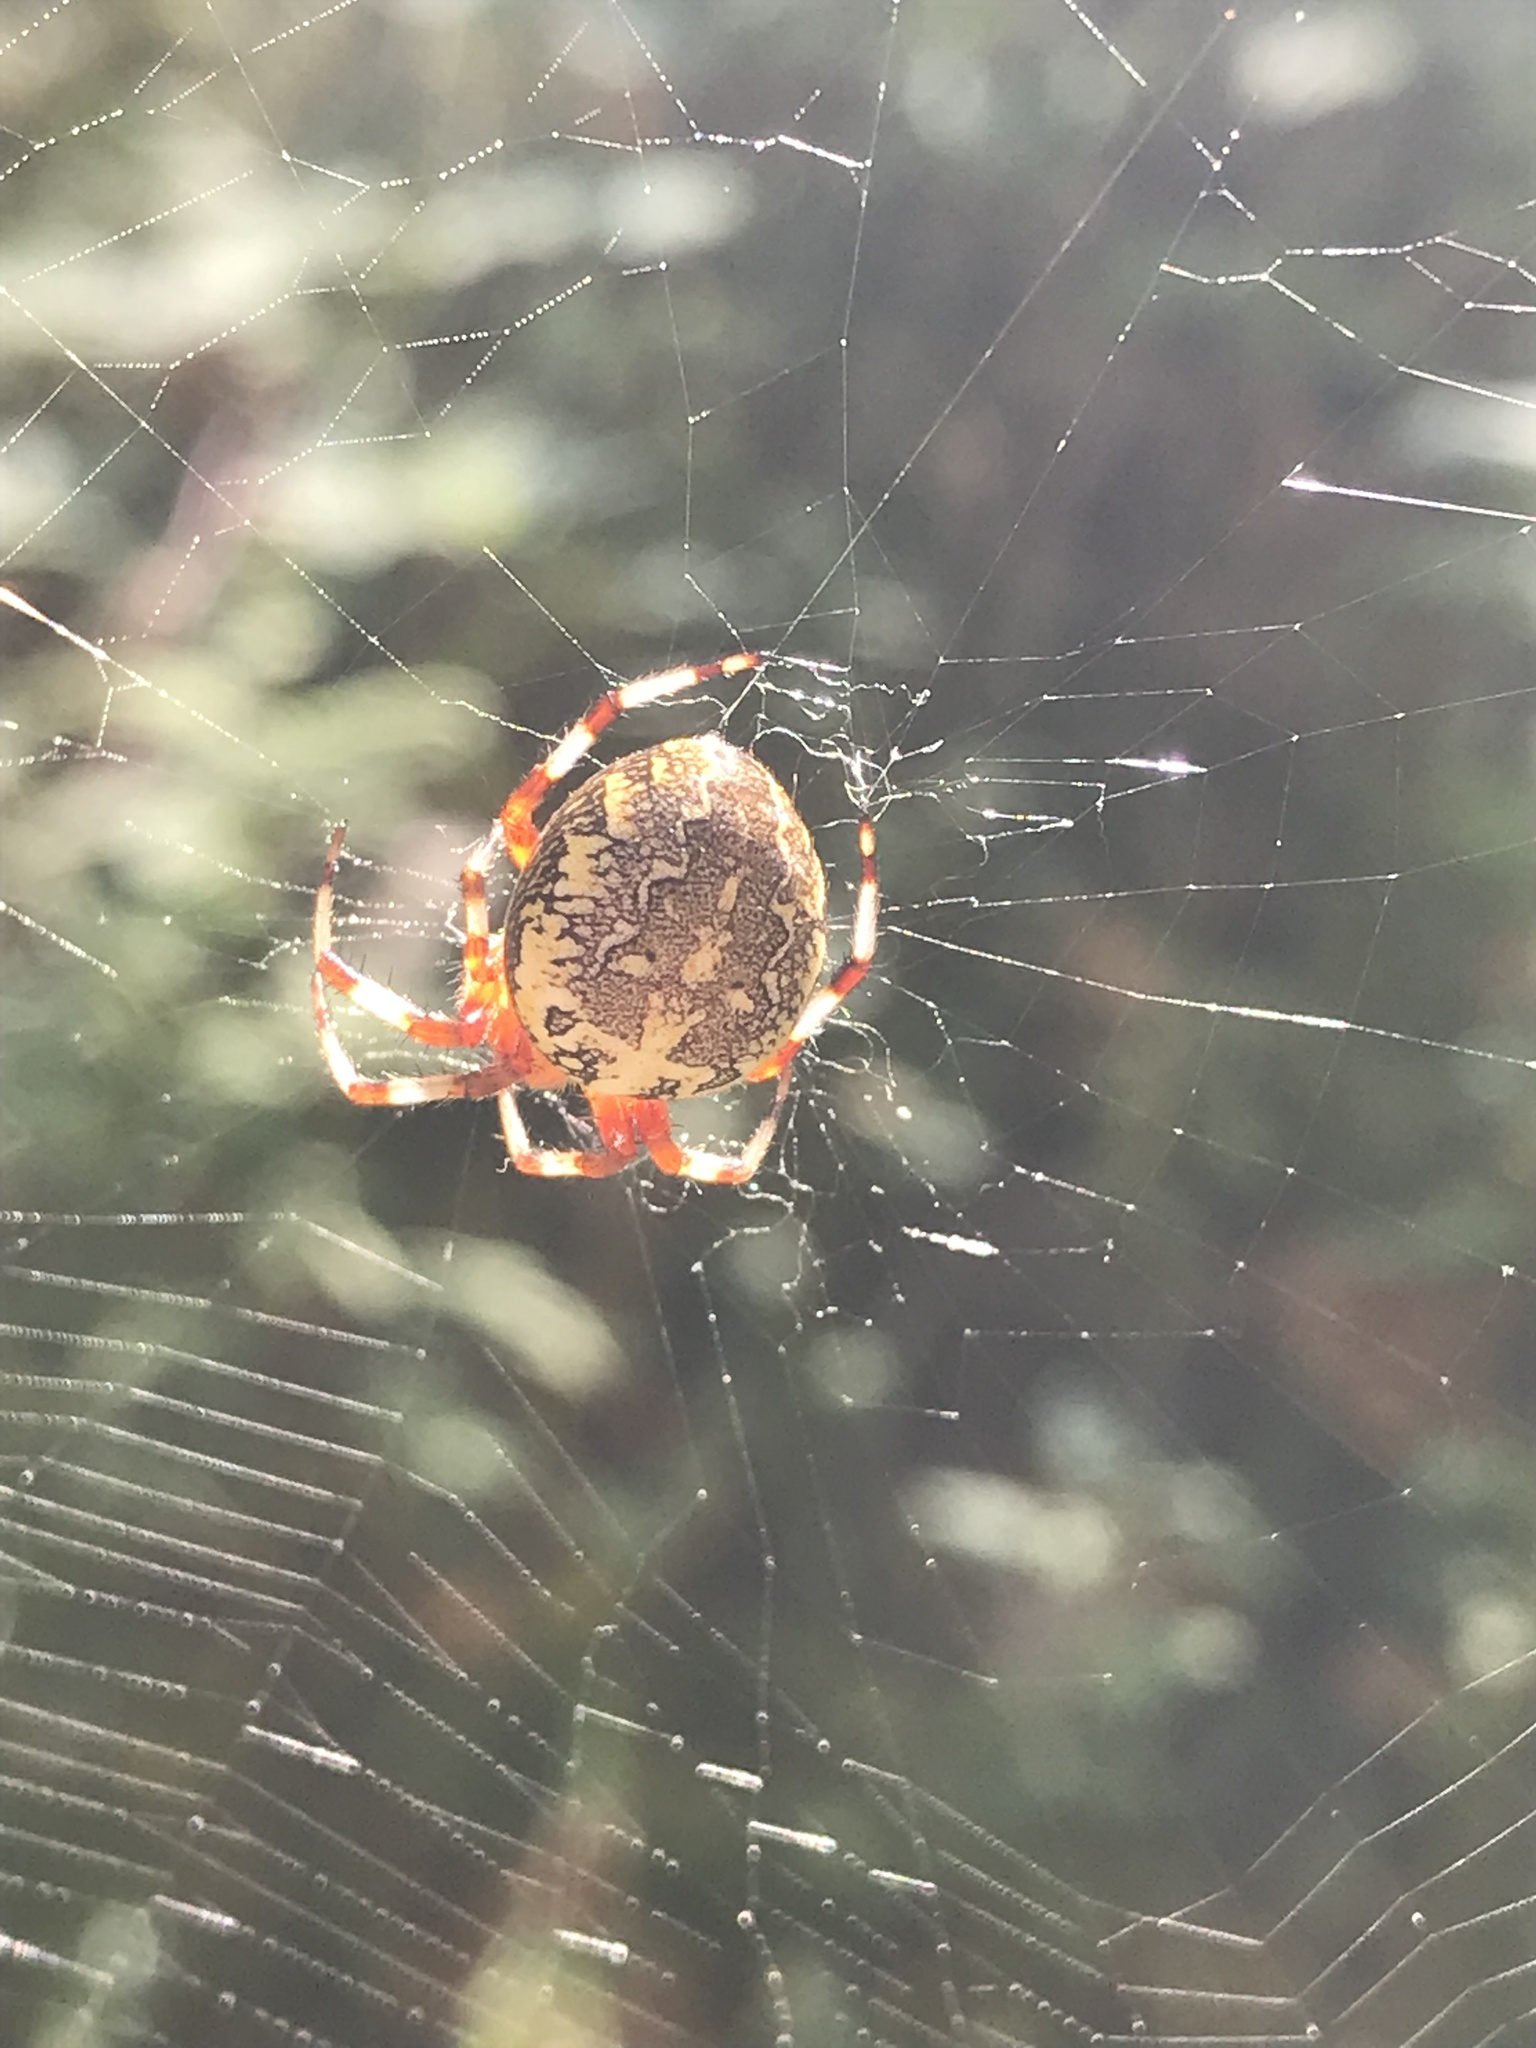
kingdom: Animalia
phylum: Arthropoda
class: Arachnida
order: Araneae
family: Araneidae
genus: Araneus
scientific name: Araneus marmoreus
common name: Marbled orbweaver
